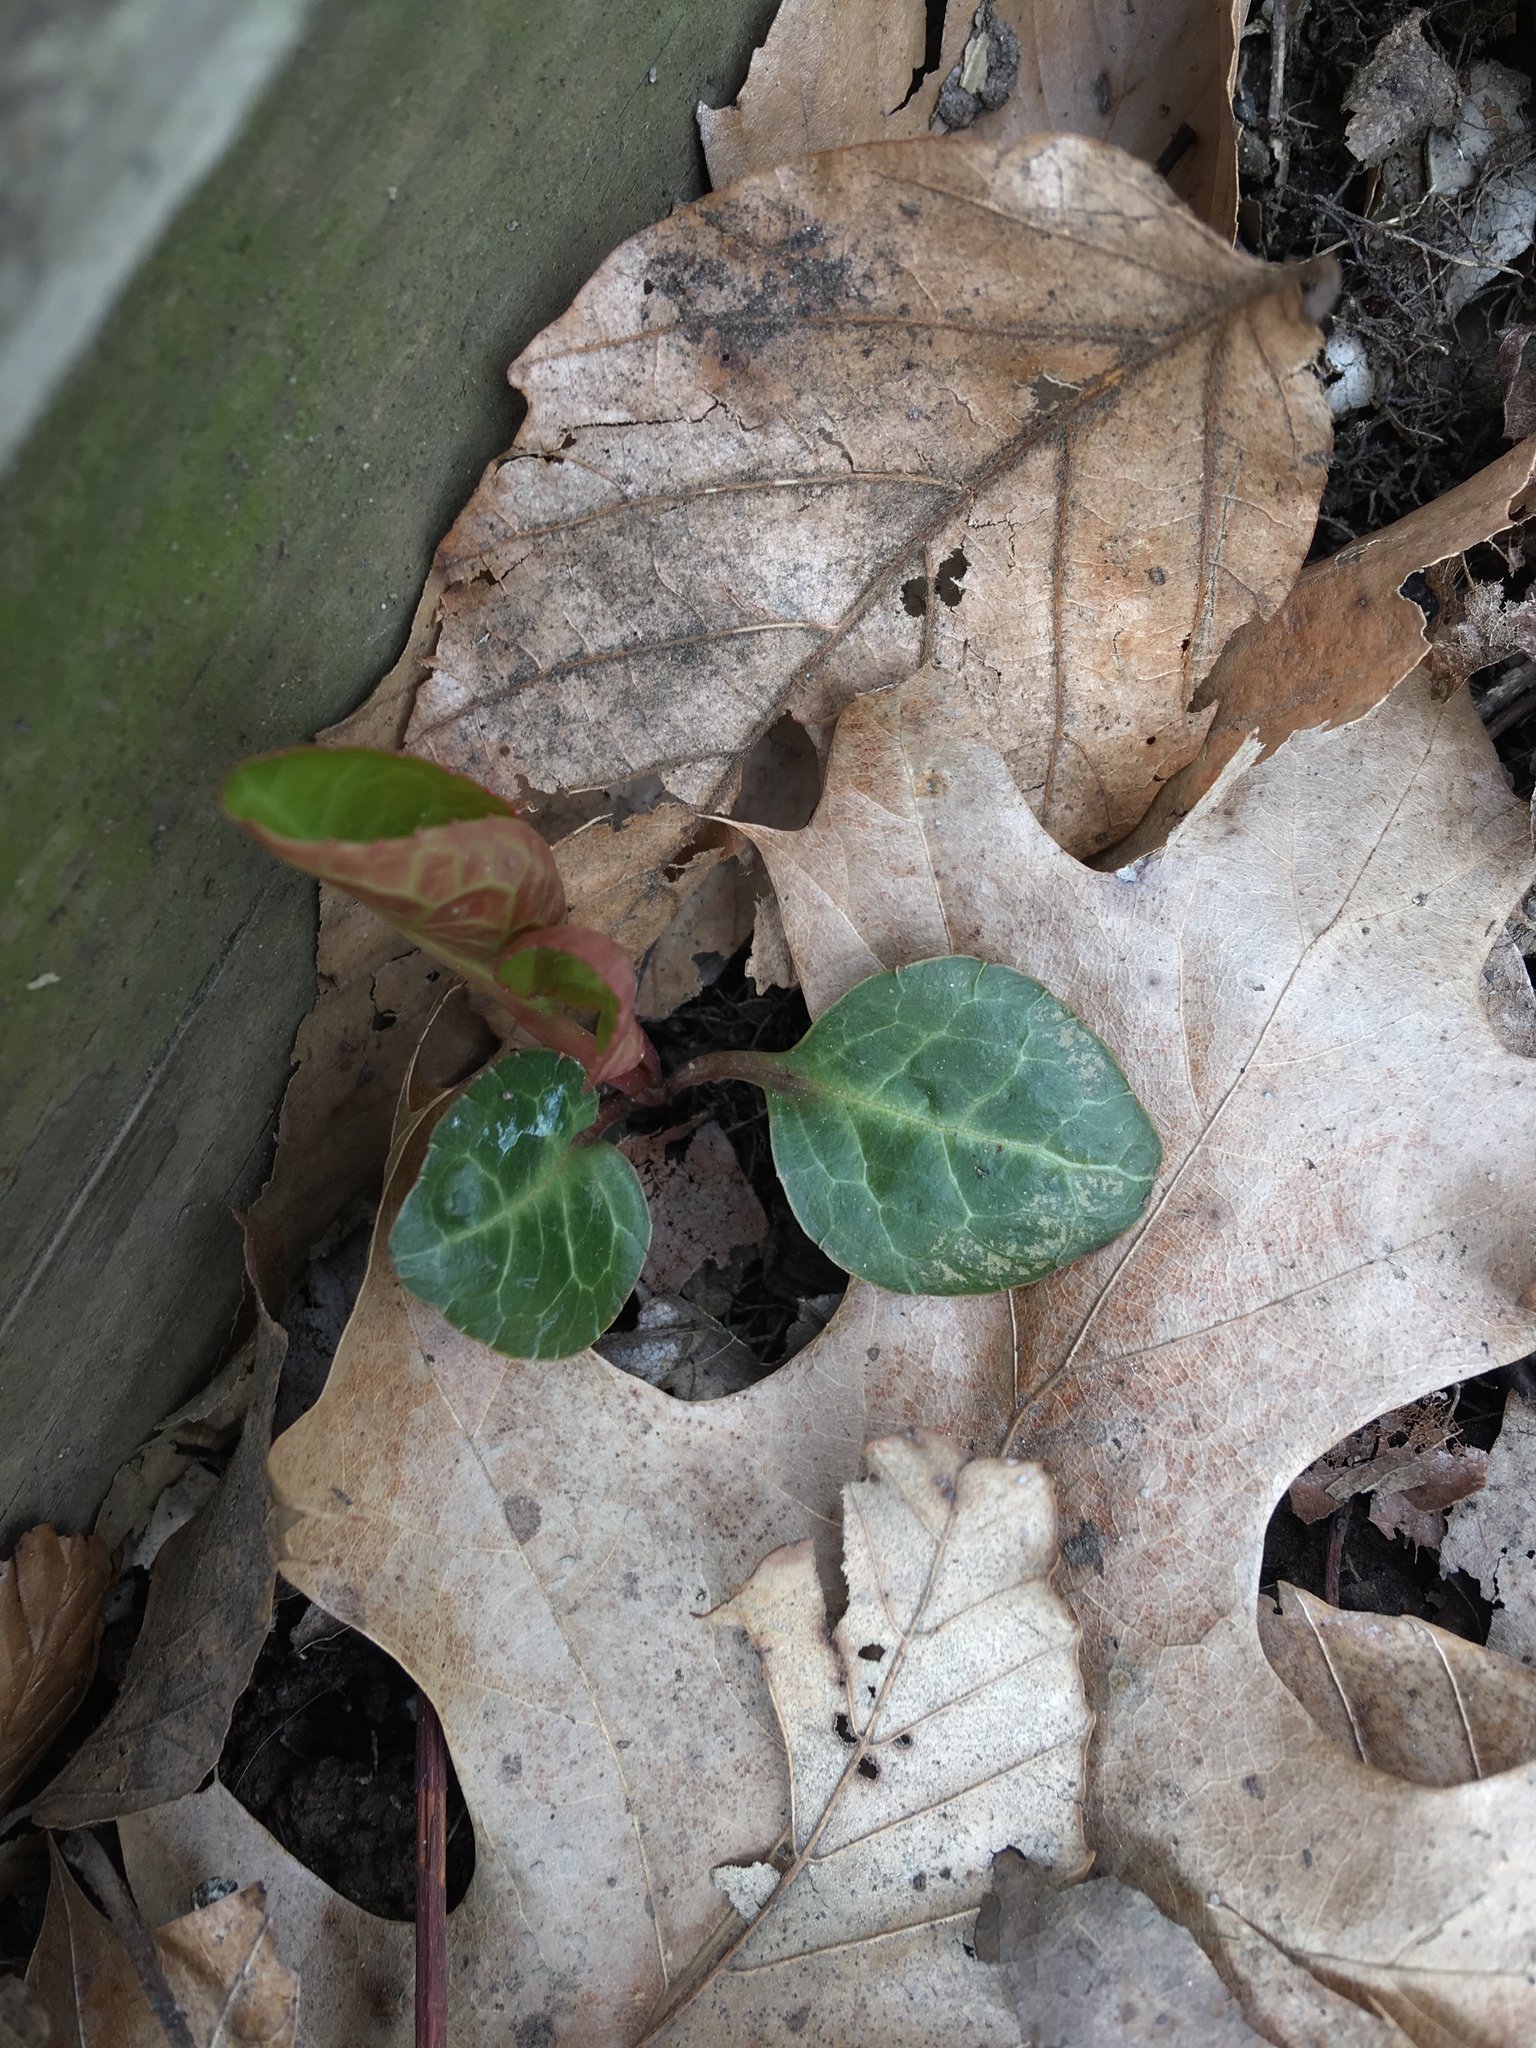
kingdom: Plantae
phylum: Tracheophyta
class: Magnoliopsida
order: Ericales
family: Ericaceae
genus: Pyrola
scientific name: Pyrola americana
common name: American wintergreen
